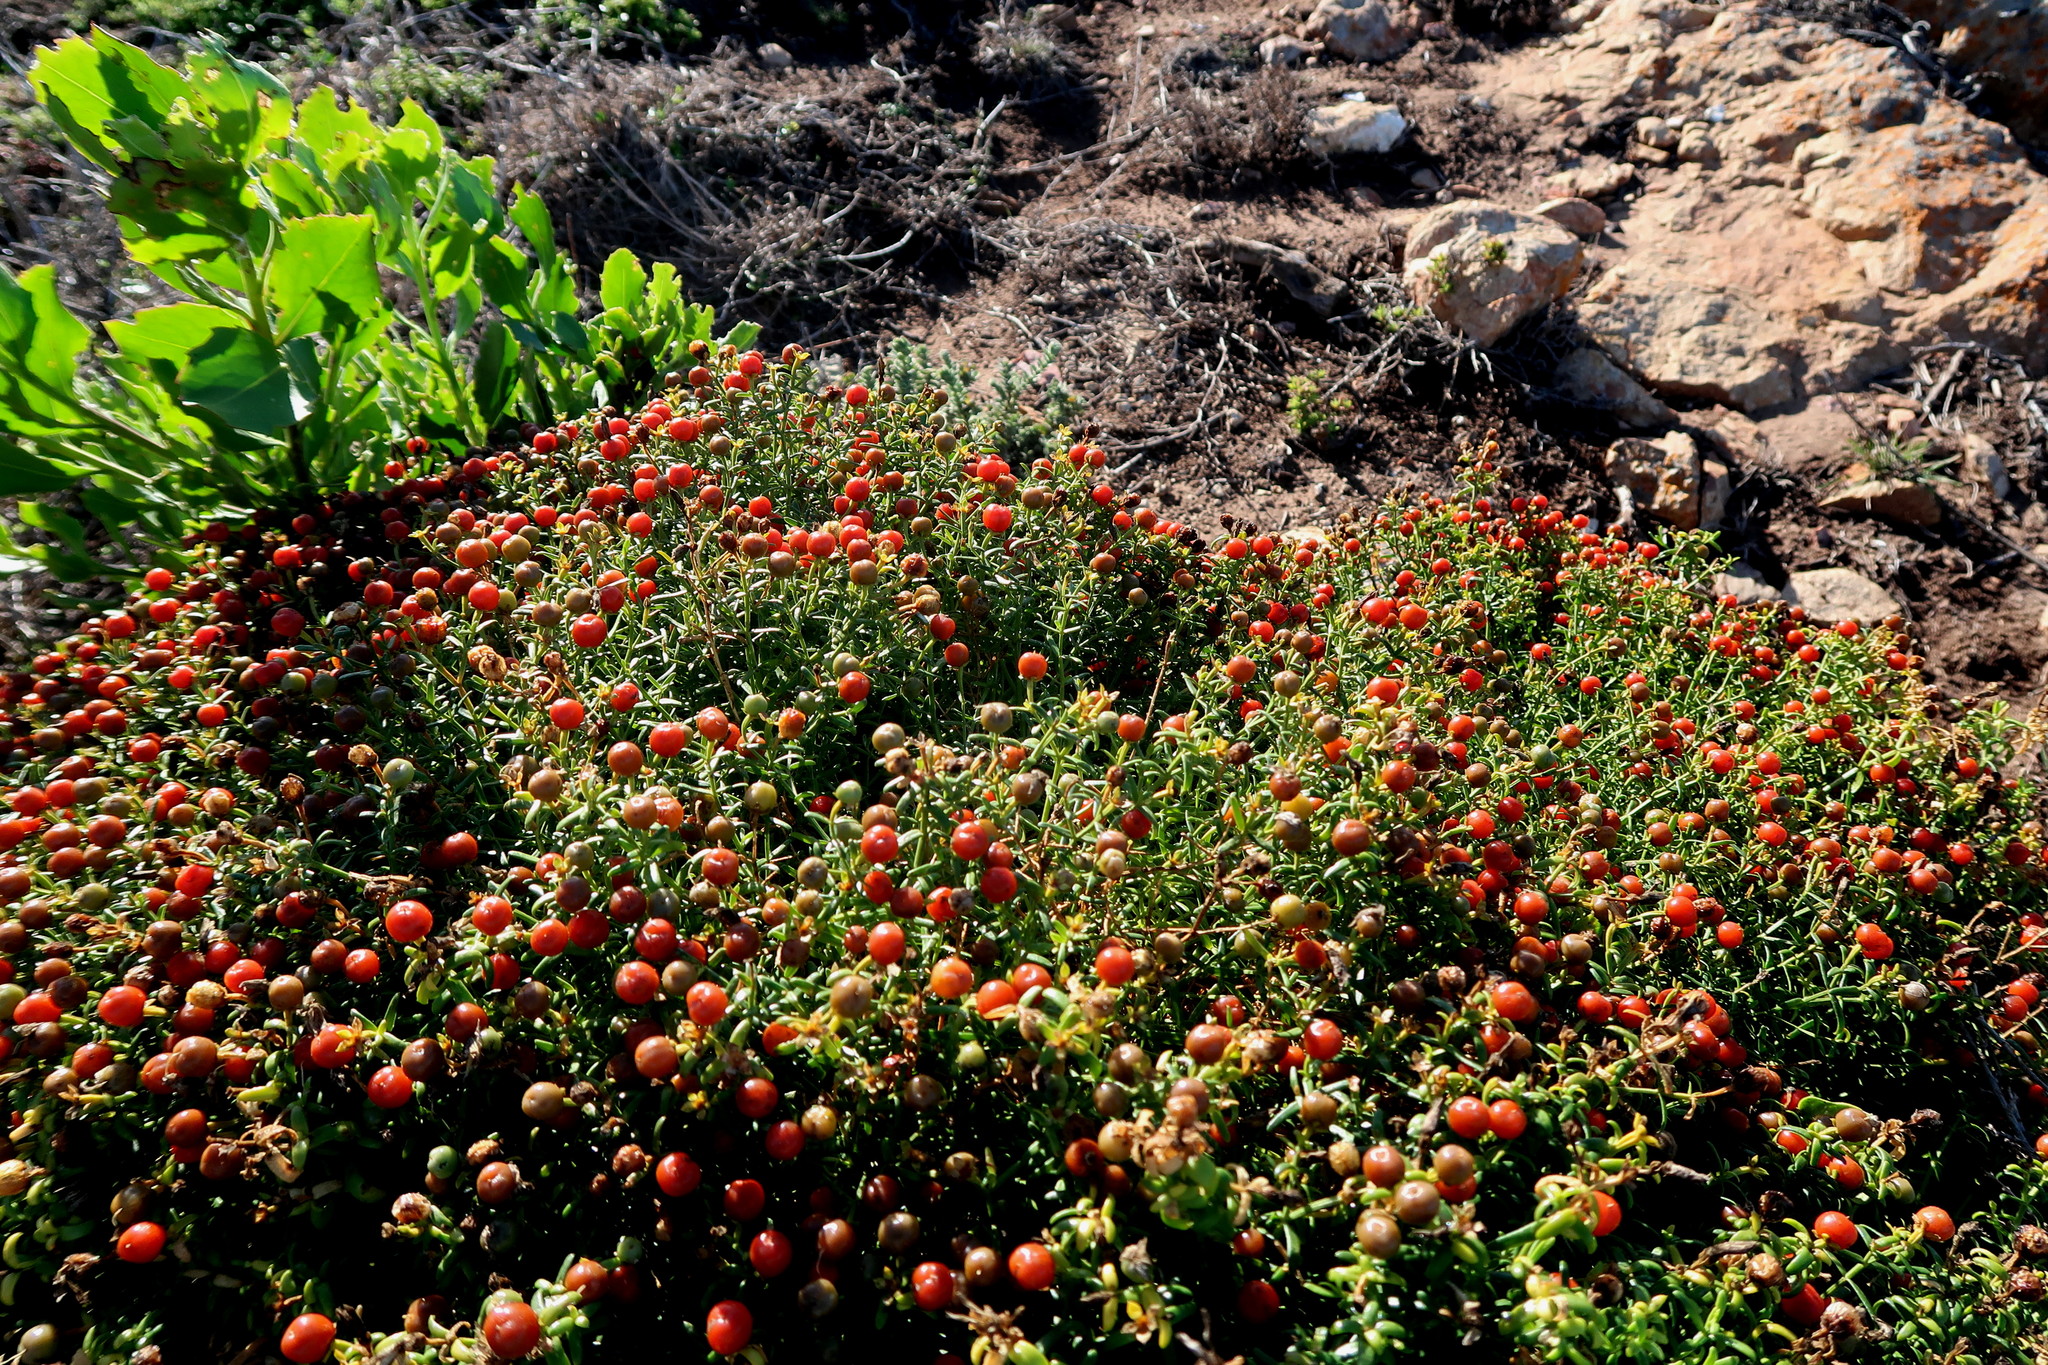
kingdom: Plantae
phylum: Tracheophyta
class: Magnoliopsida
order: Gentianales
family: Gentianaceae
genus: Chironia
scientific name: Chironia baccifera
